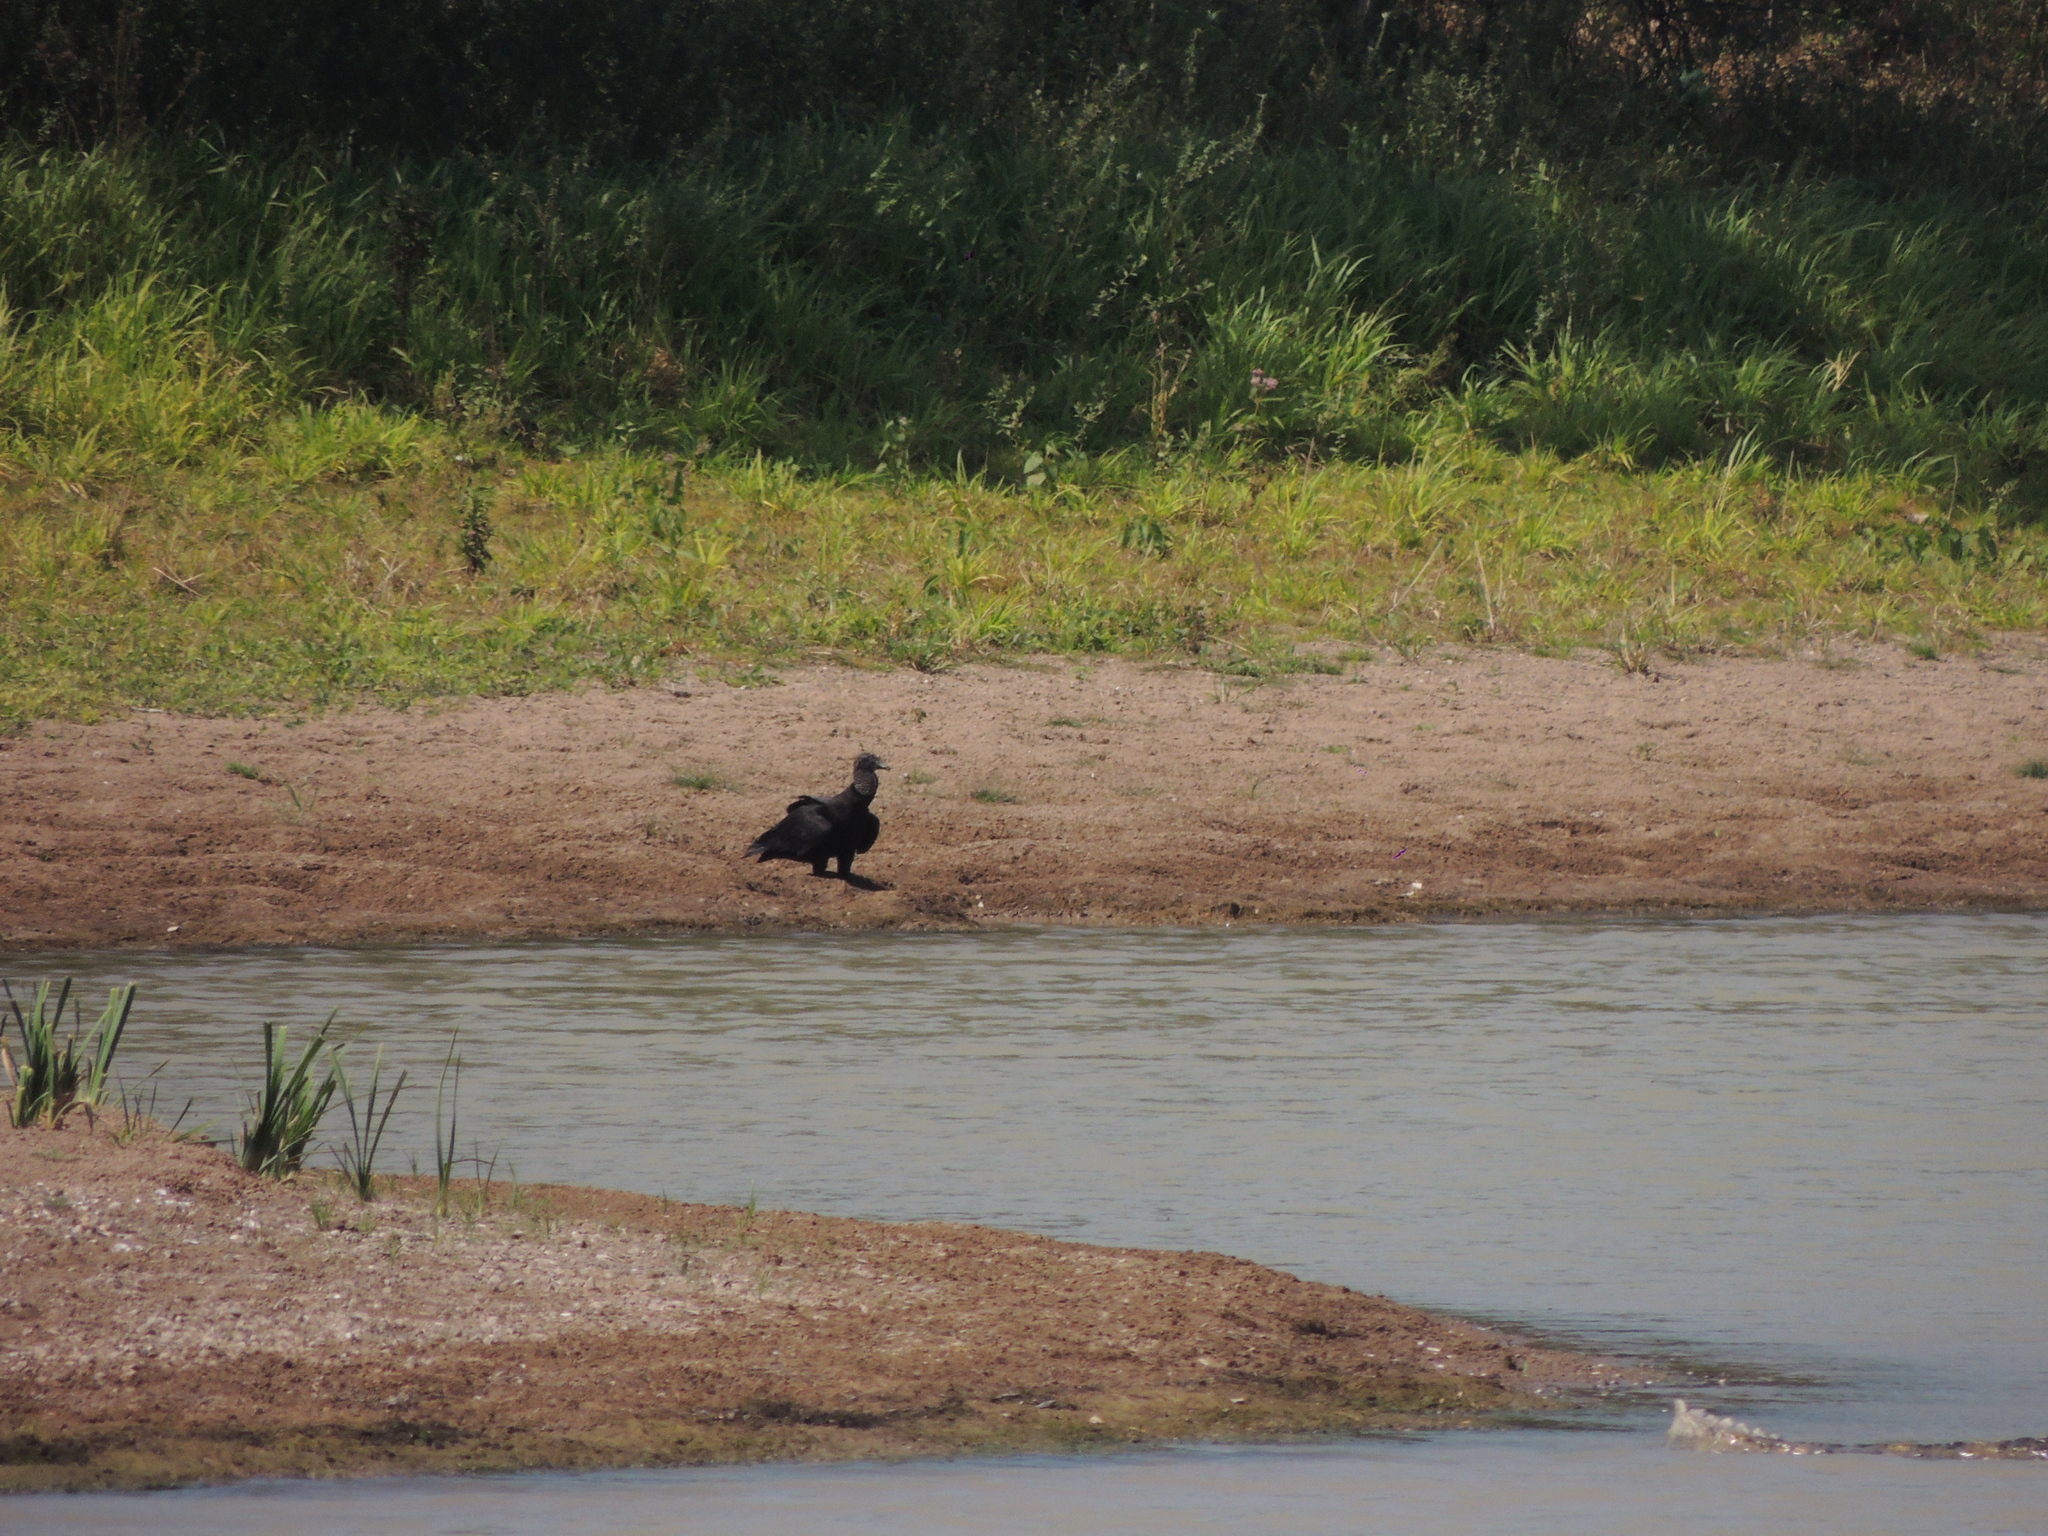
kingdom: Animalia
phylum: Chordata
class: Aves
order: Accipitriformes
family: Cathartidae
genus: Coragyps
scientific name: Coragyps atratus
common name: Black vulture
